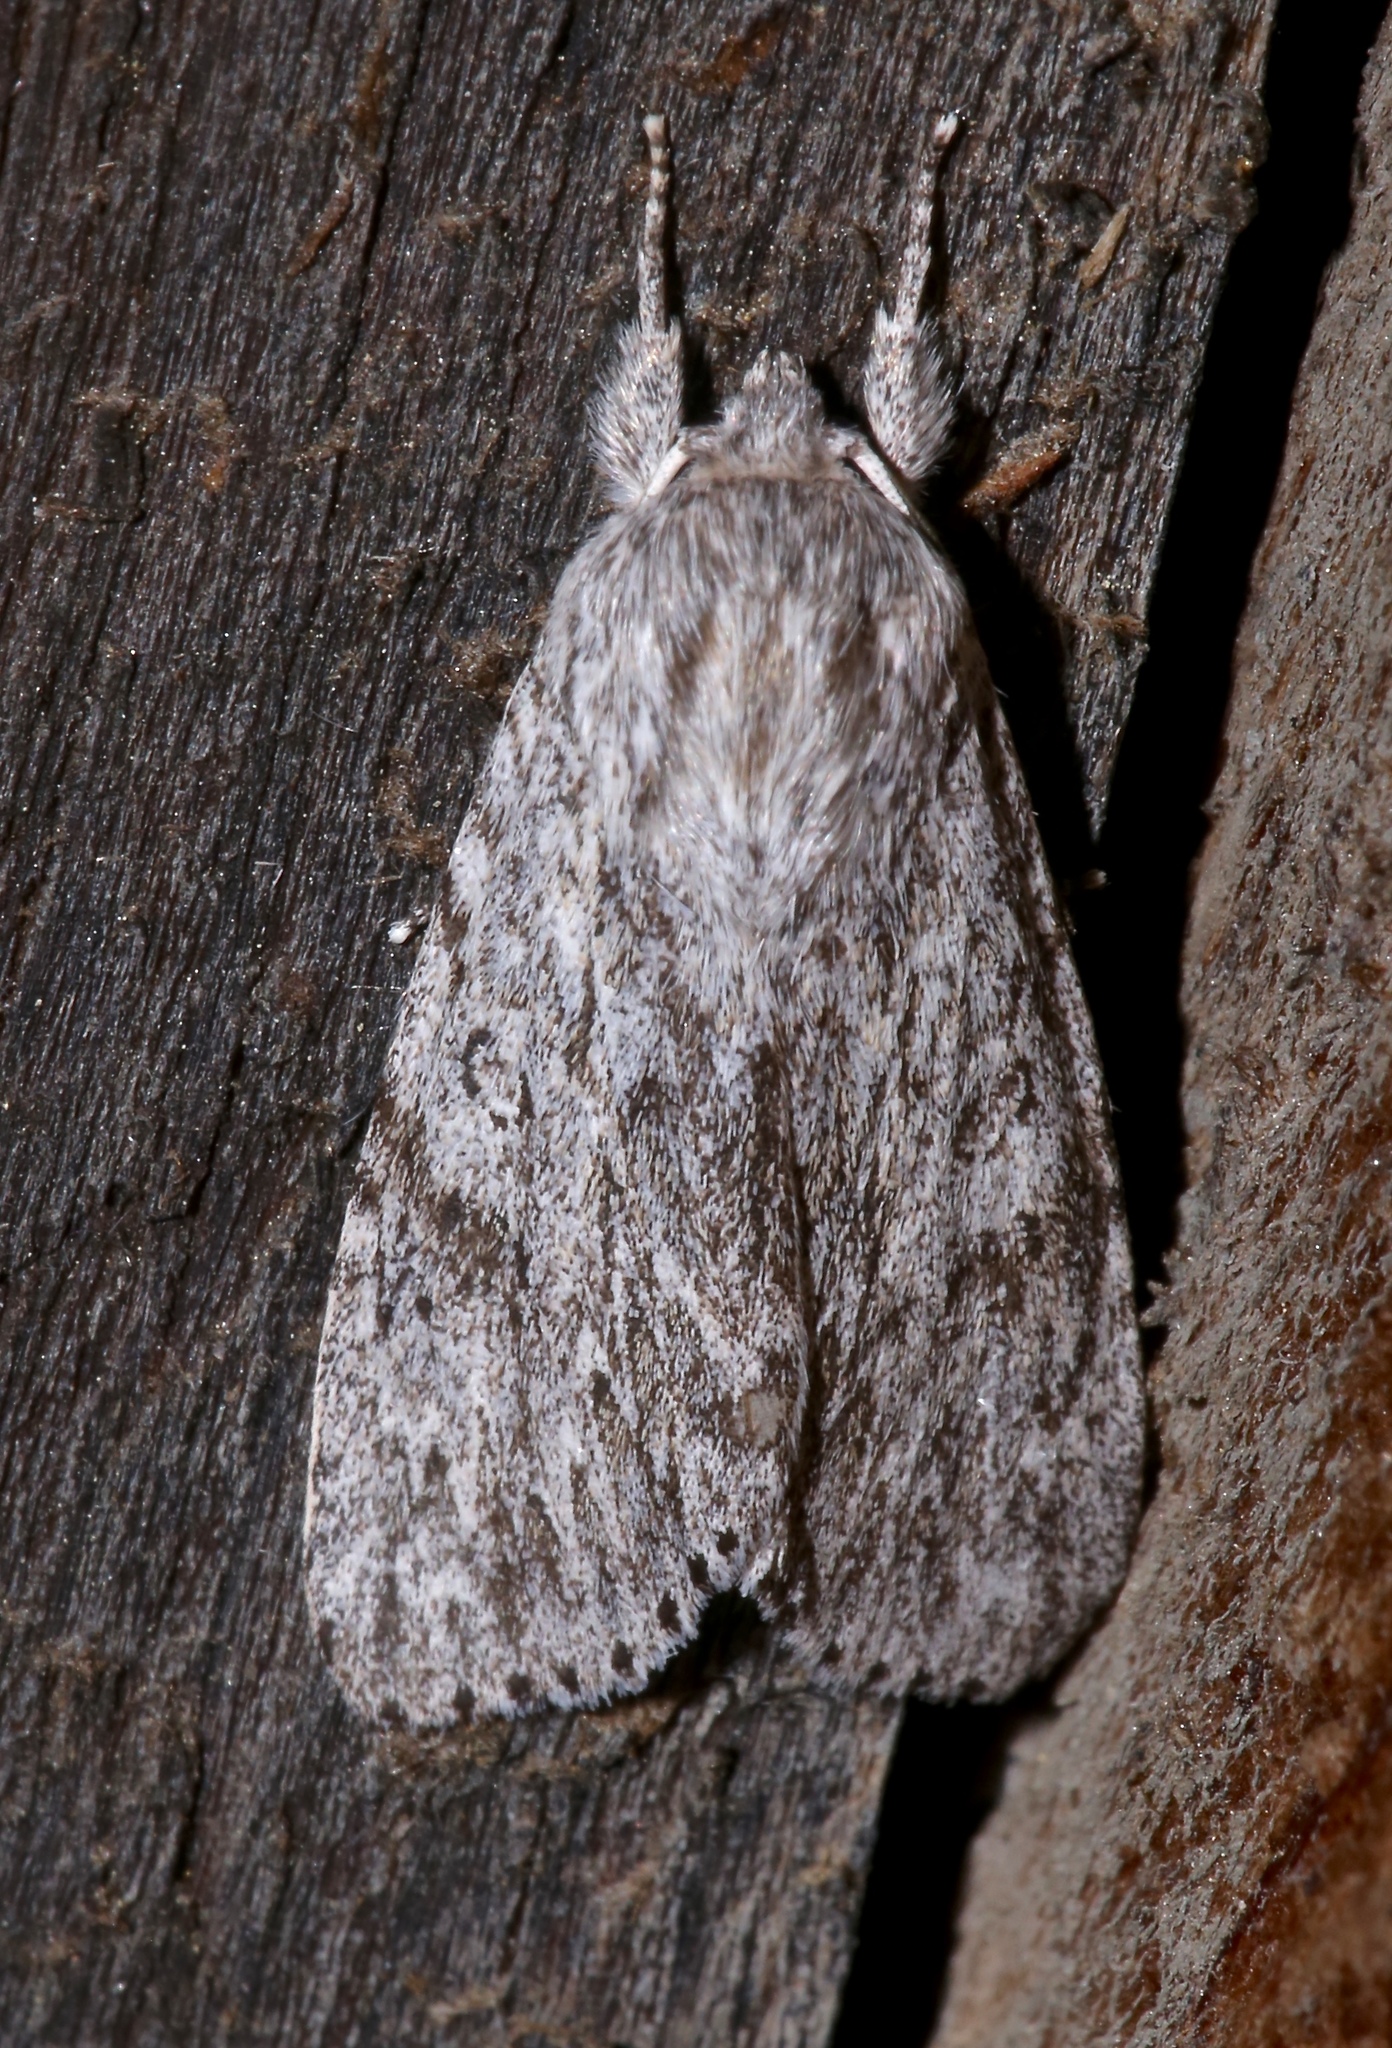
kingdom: Animalia
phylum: Arthropoda
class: Insecta
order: Lepidoptera
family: Noctuidae
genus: Acronicta
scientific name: Acronicta longa
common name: Long-winged dagger
